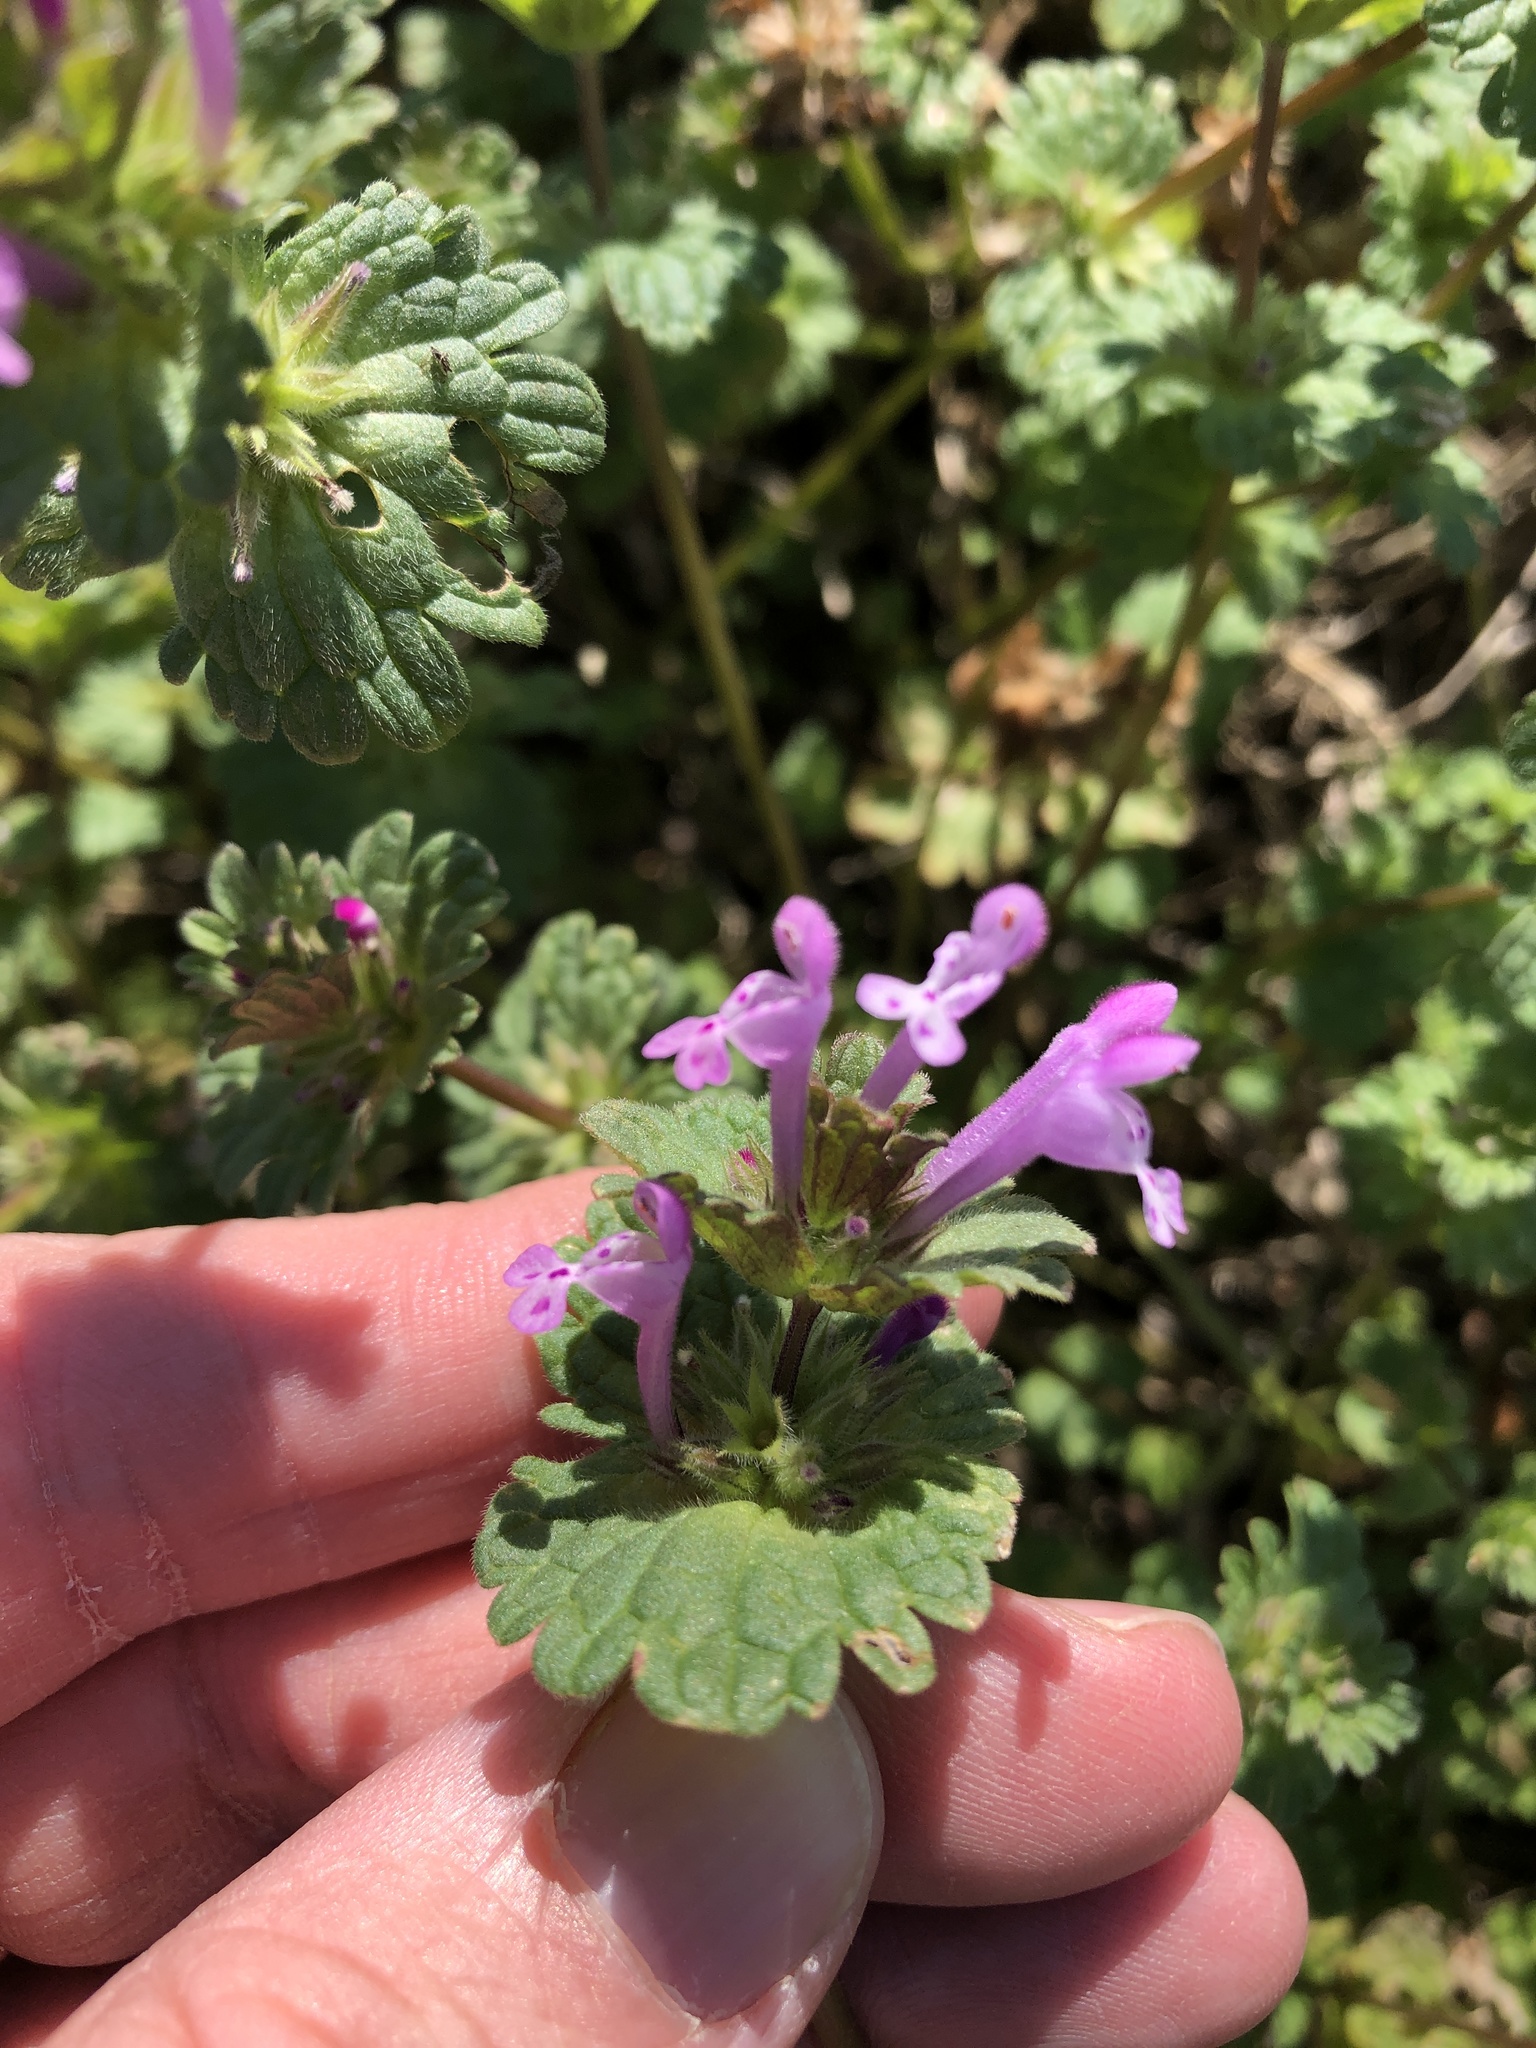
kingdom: Plantae
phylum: Tracheophyta
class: Magnoliopsida
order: Lamiales
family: Lamiaceae
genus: Lamium
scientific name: Lamium amplexicaule
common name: Henbit dead-nettle
